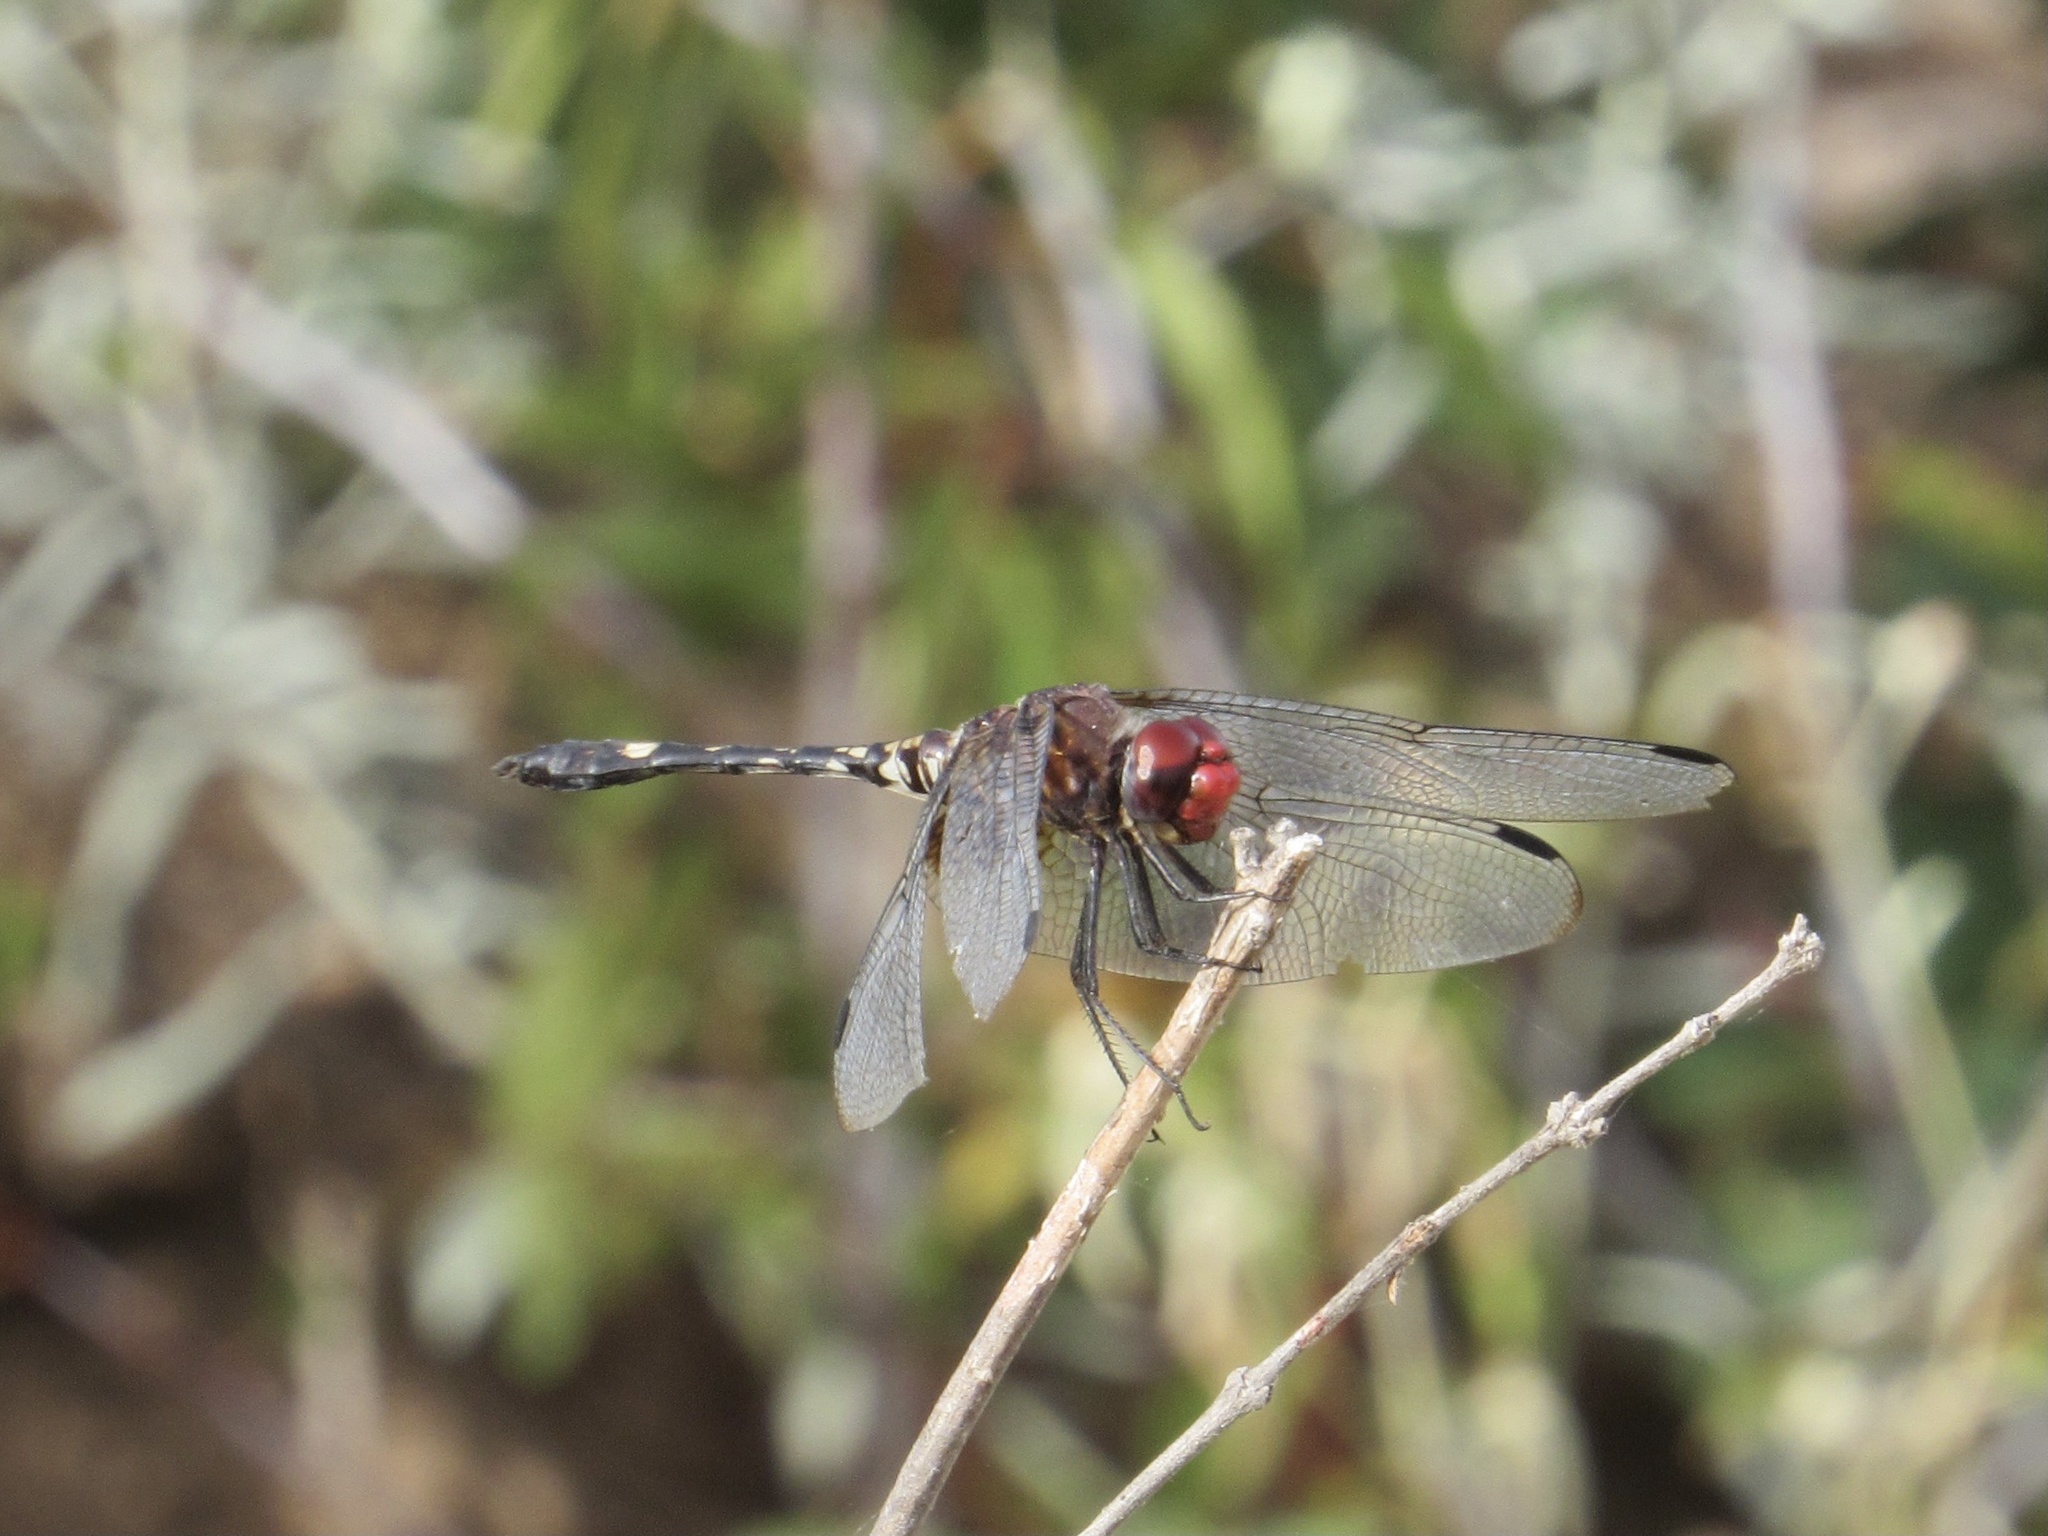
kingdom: Animalia
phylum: Arthropoda
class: Insecta
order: Odonata
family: Libellulidae
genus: Dythemis
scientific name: Dythemis fugax
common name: Checkered setwing
